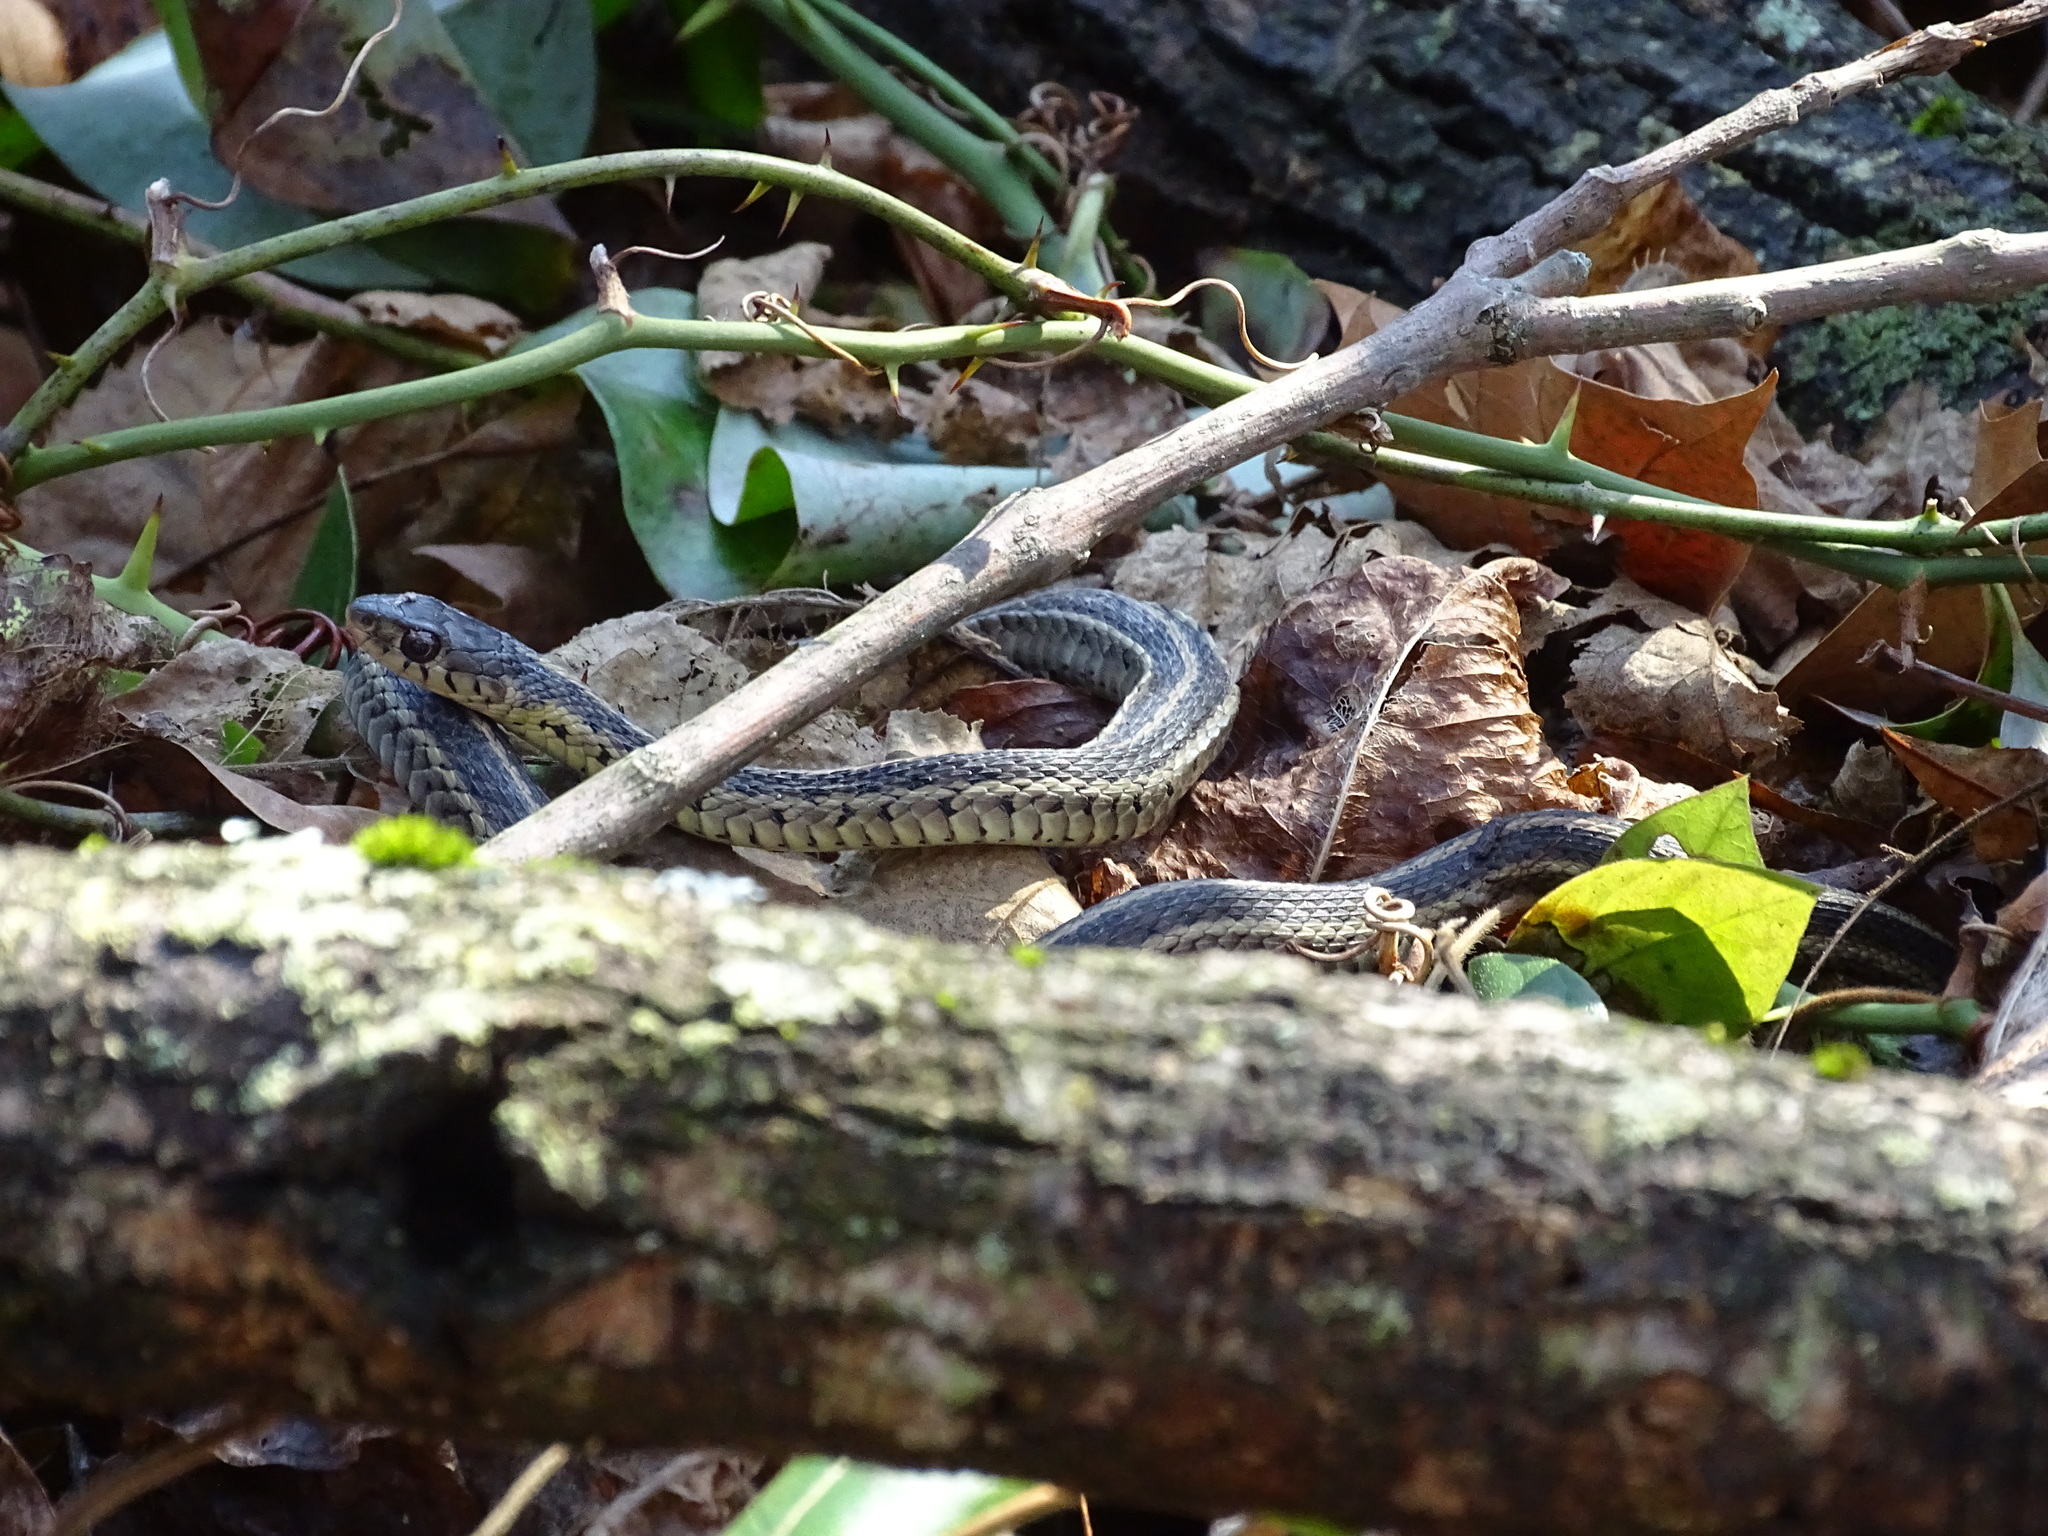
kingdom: Animalia
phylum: Chordata
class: Squamata
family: Colubridae
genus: Thamnophis
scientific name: Thamnophis sirtalis
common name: Common garter snake
